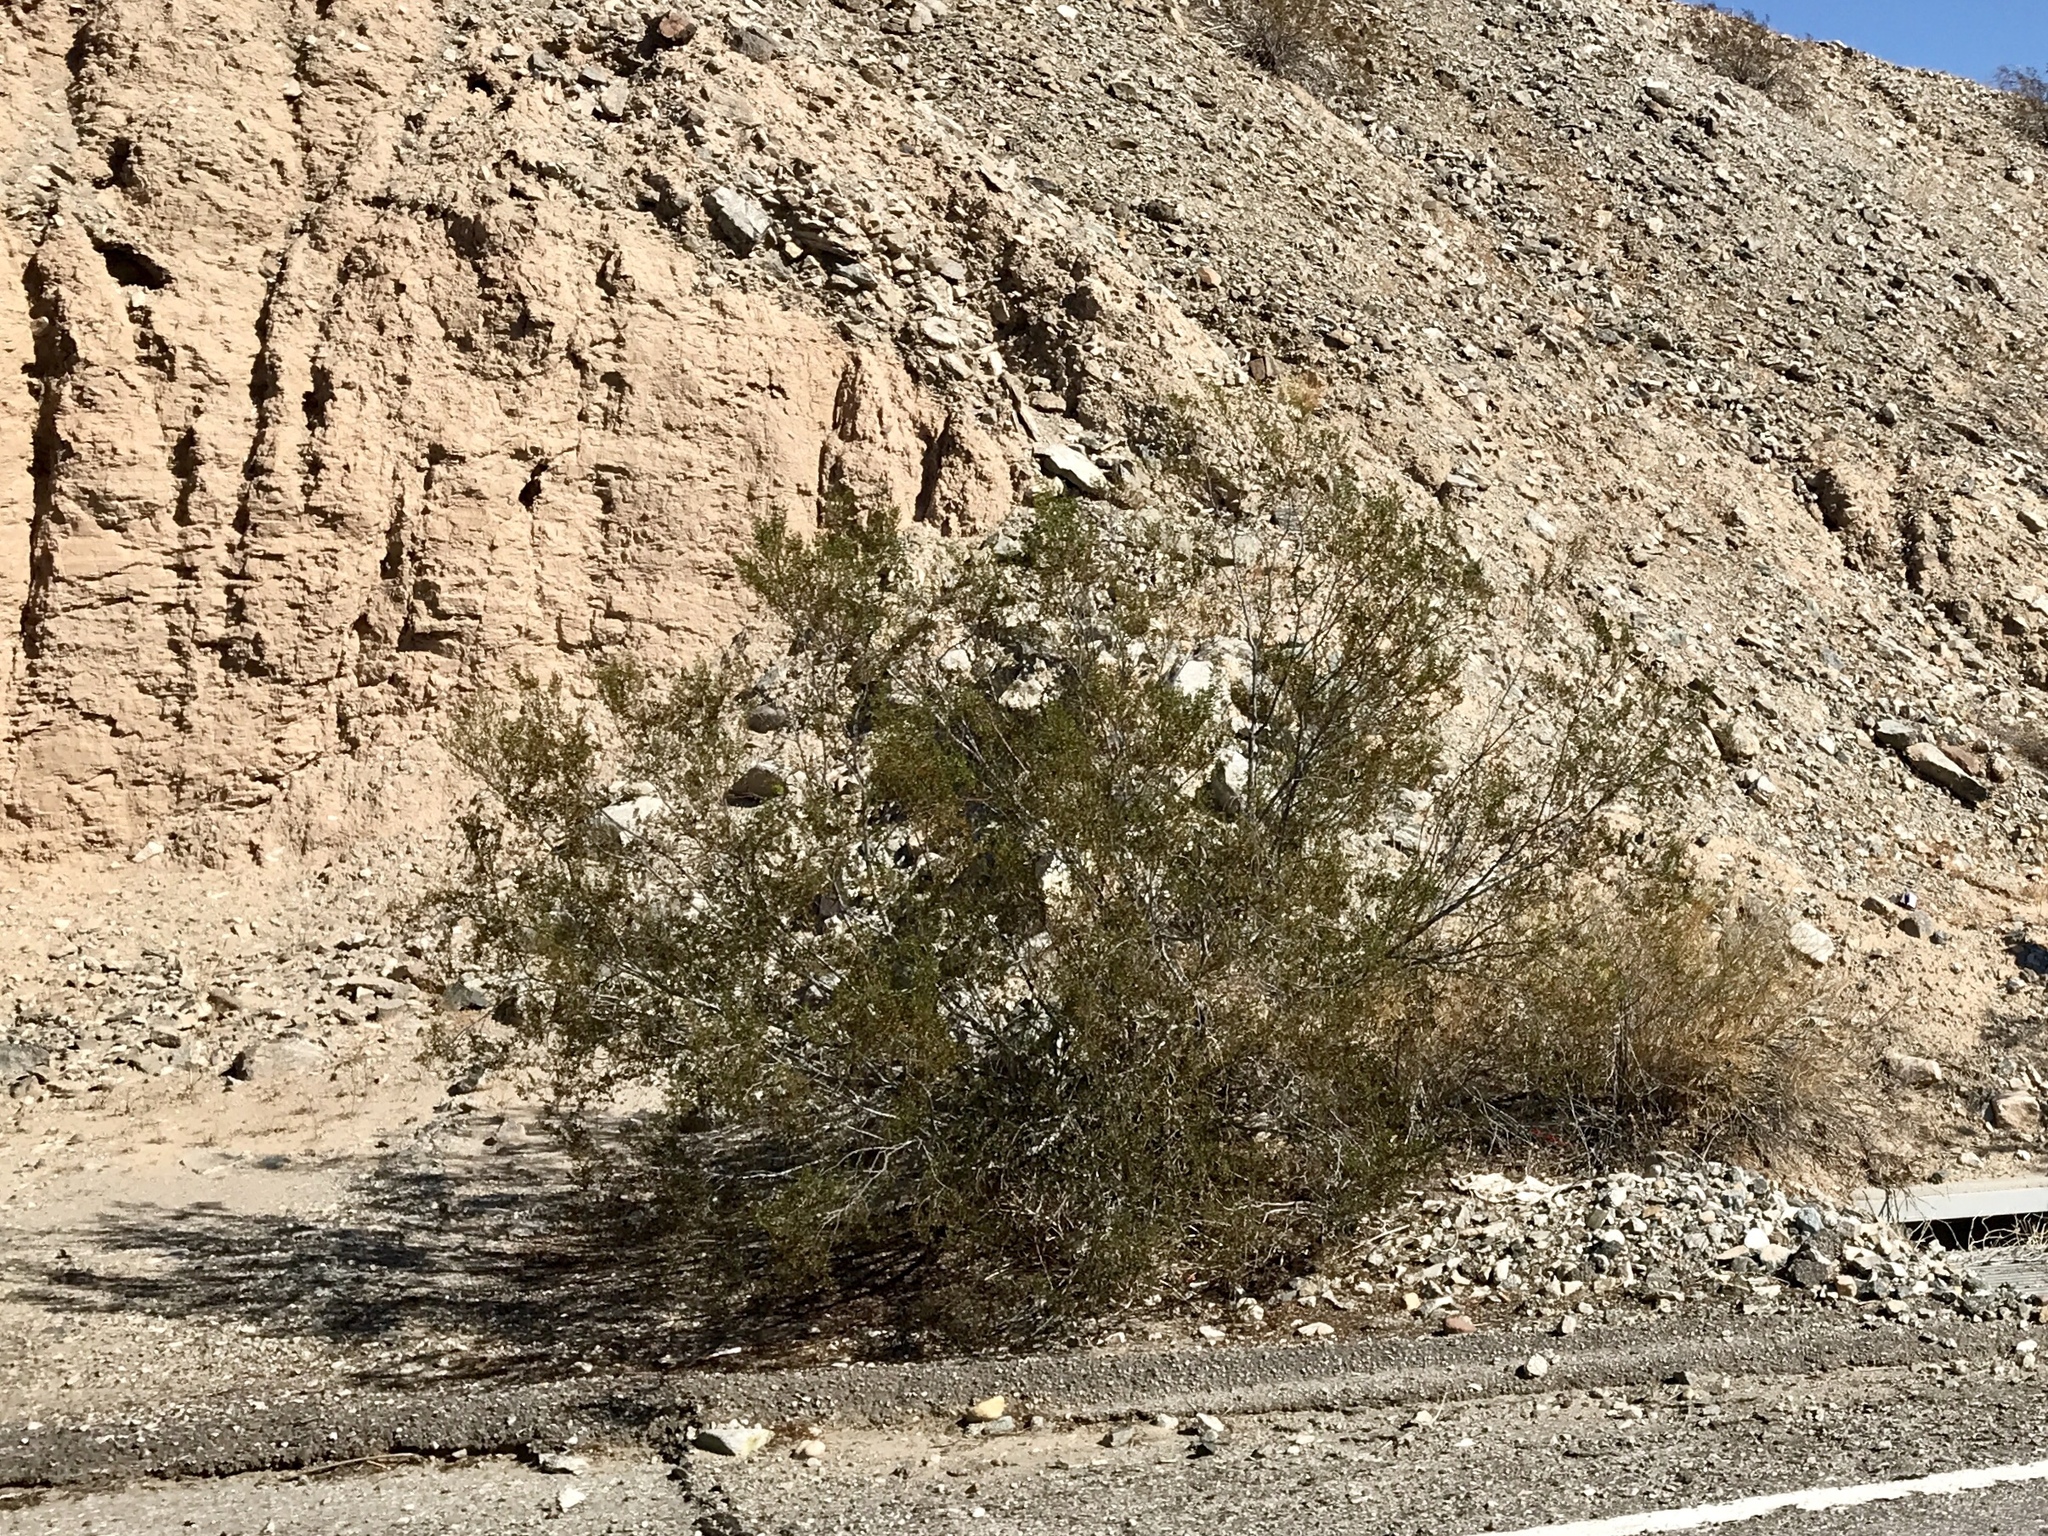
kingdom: Plantae
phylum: Tracheophyta
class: Magnoliopsida
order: Zygophyllales
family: Zygophyllaceae
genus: Larrea
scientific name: Larrea tridentata
